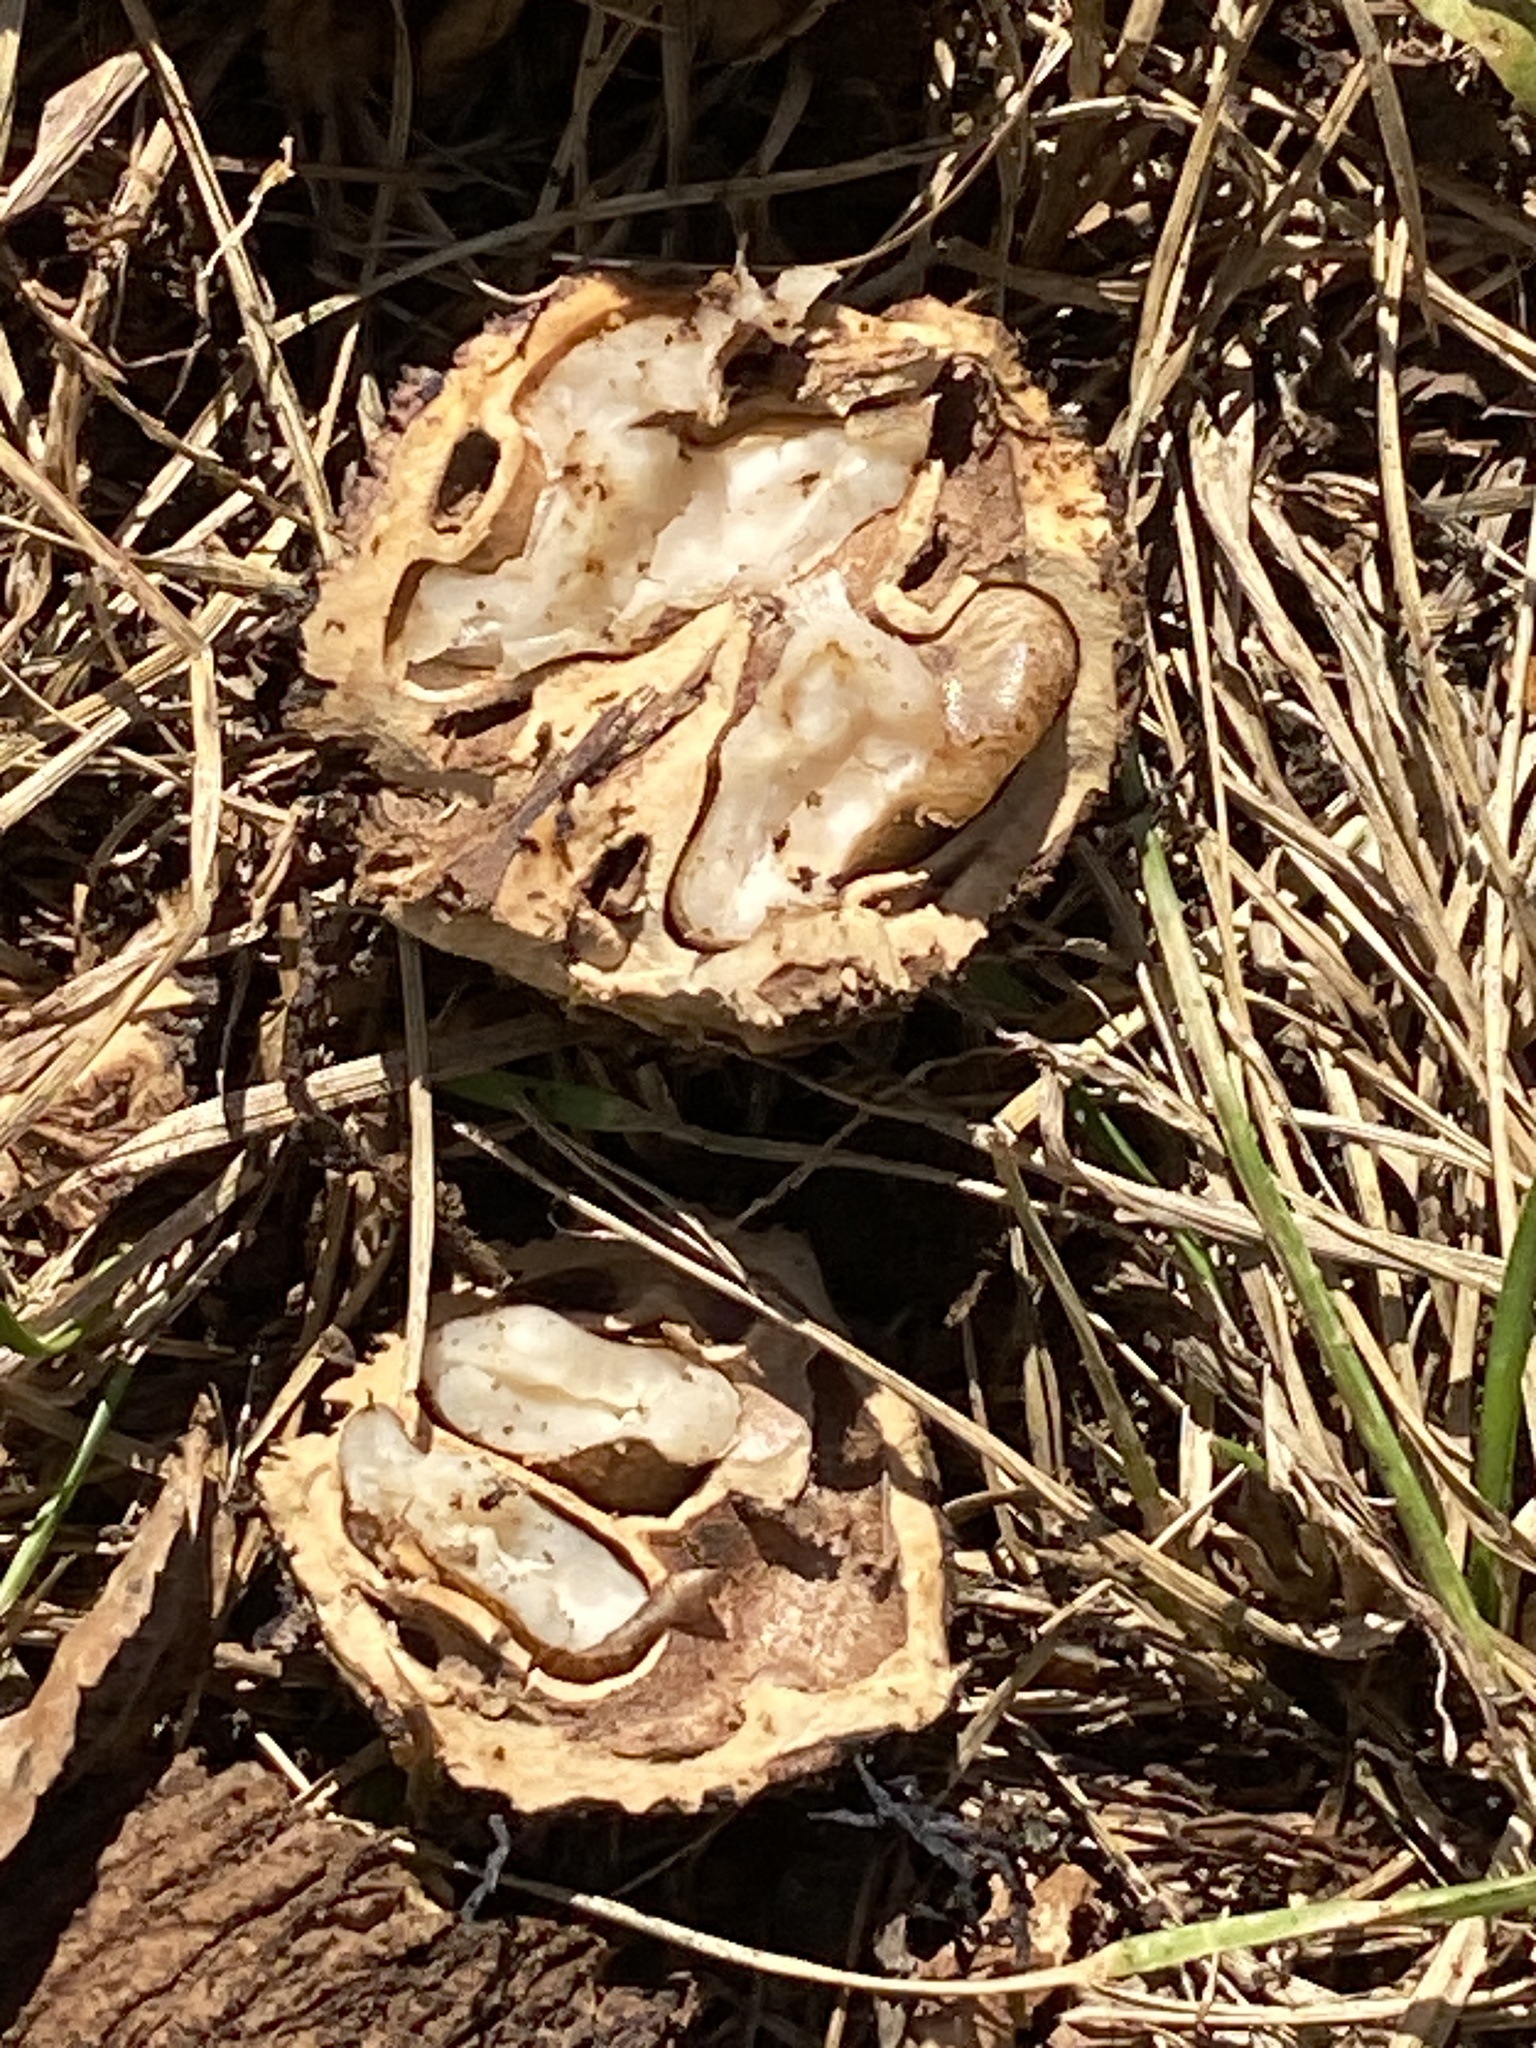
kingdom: Plantae
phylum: Tracheophyta
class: Magnoliopsida
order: Fagales
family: Juglandaceae
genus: Juglans
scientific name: Juglans nigra
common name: Black walnut
